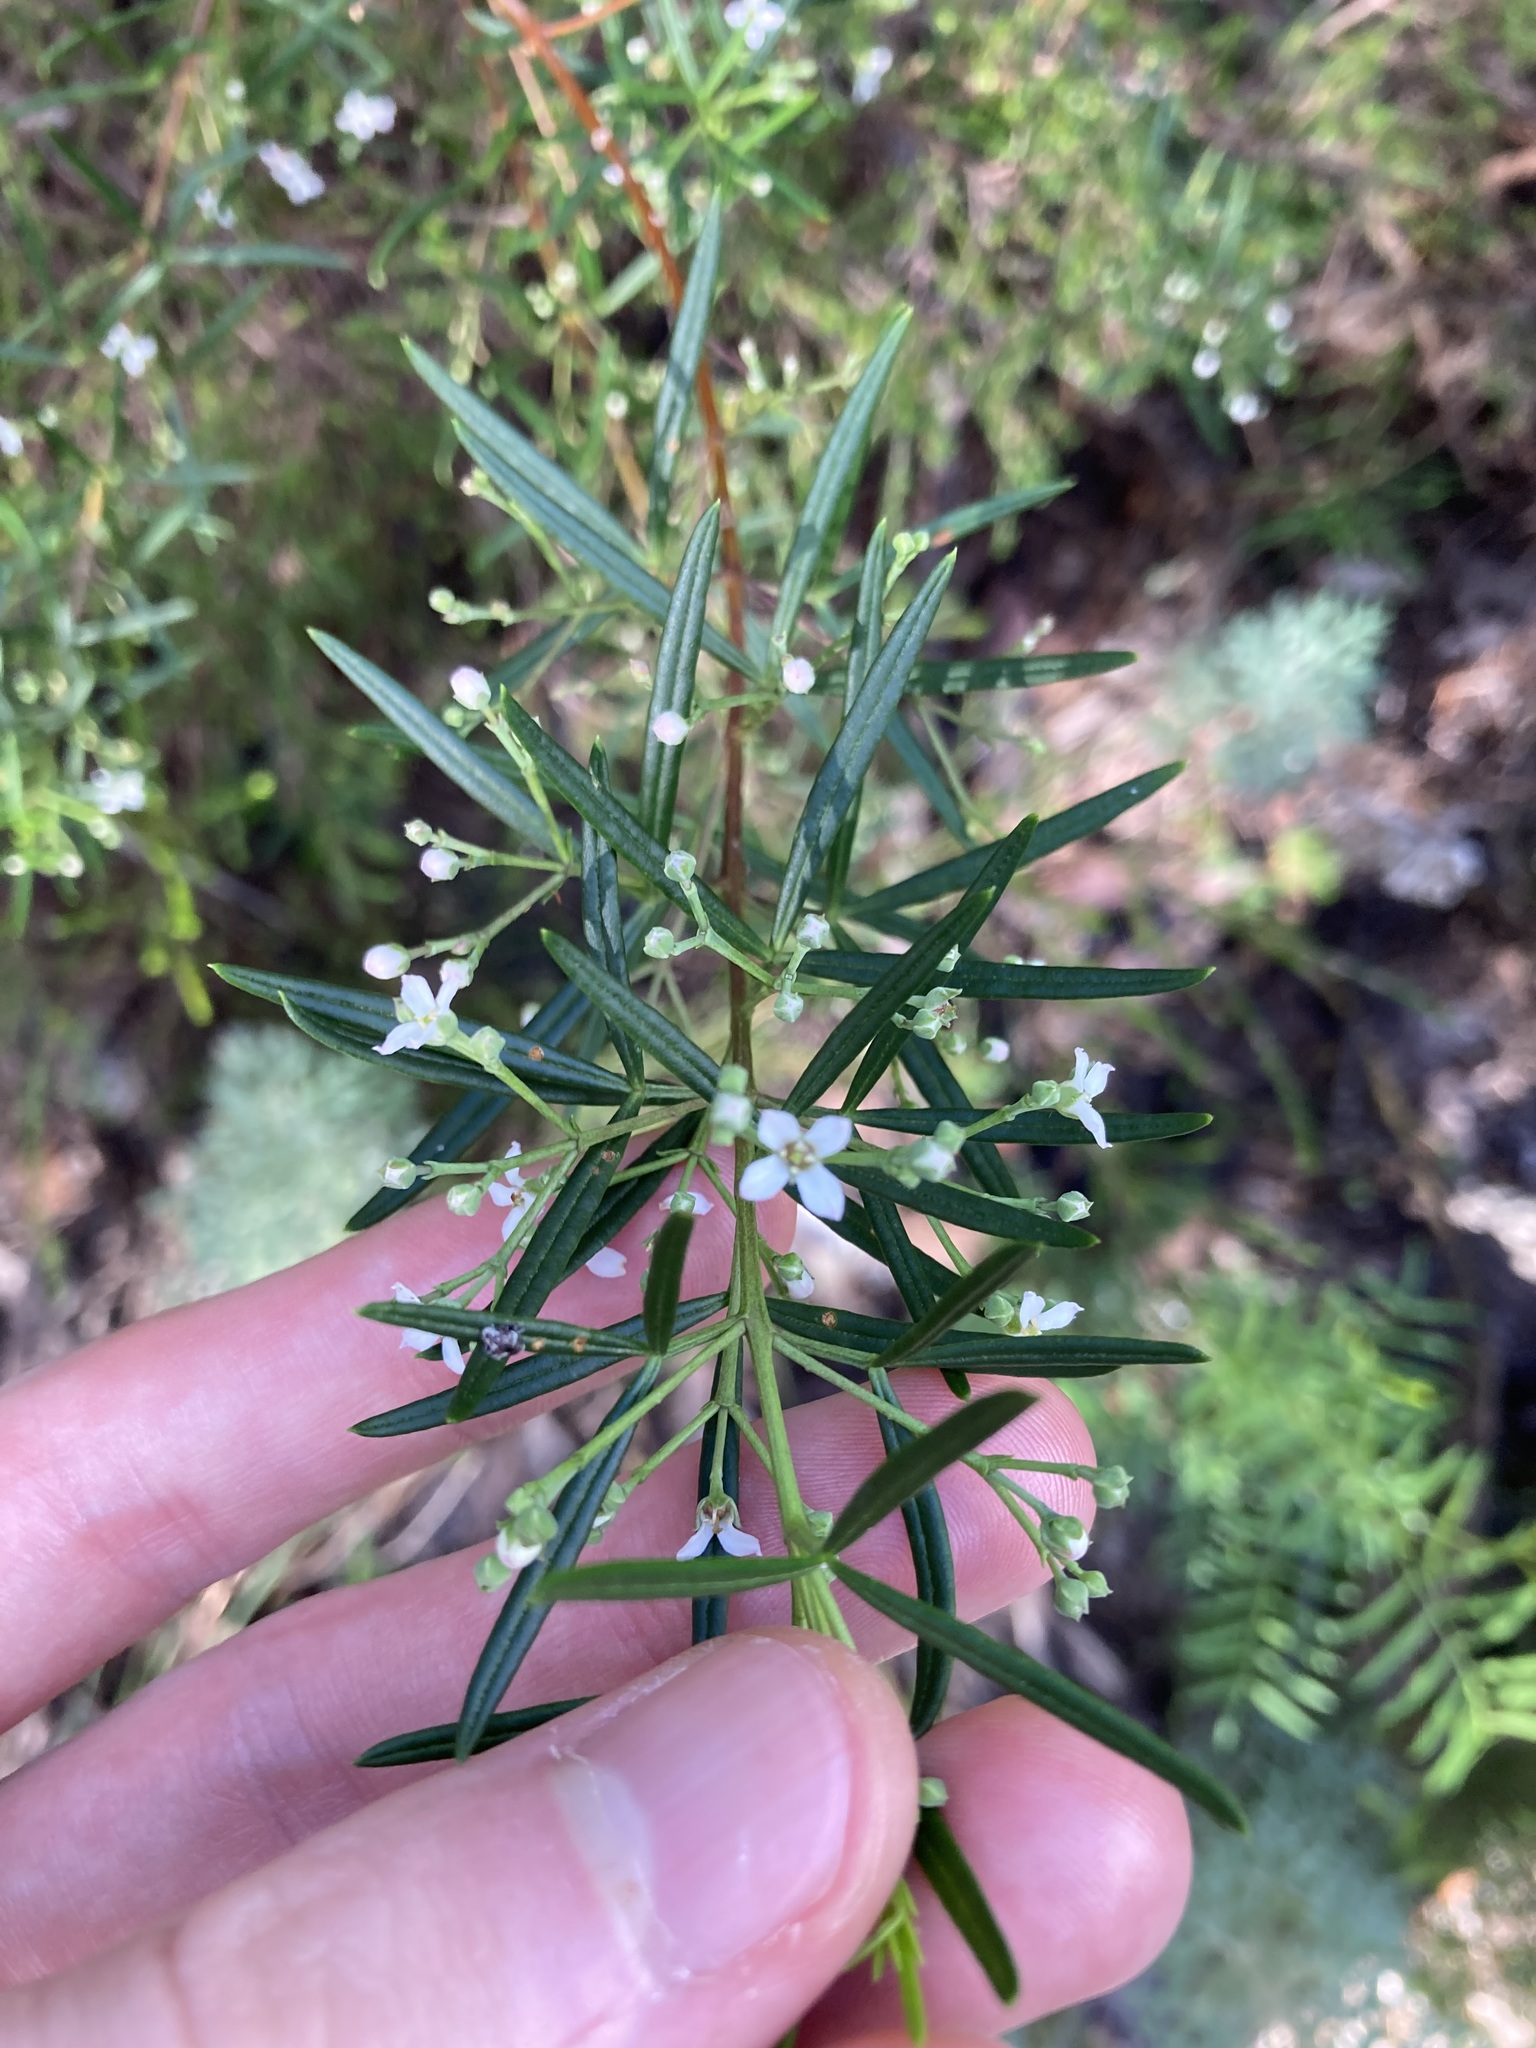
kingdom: Plantae
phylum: Tracheophyta
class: Magnoliopsida
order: Sapindales
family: Rutaceae
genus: Zieria
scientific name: Zieria laevigata
